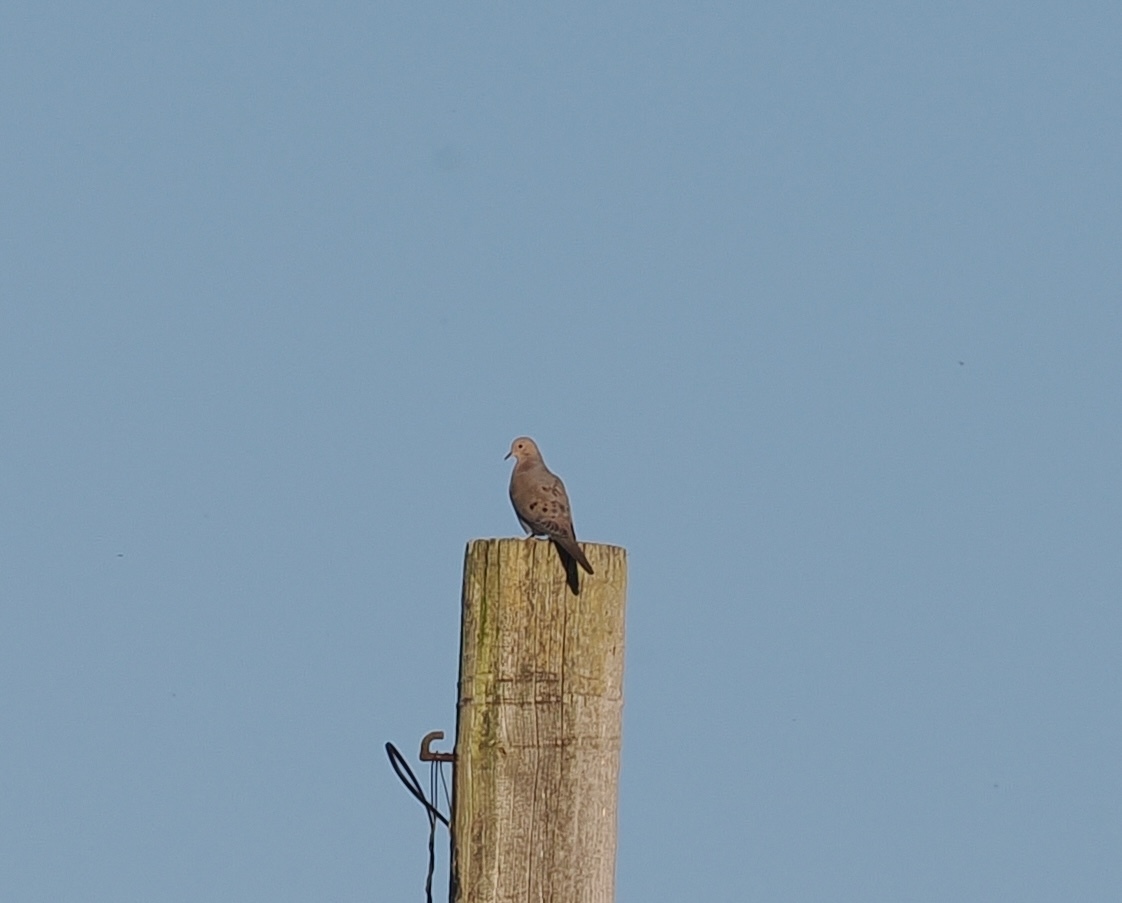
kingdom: Animalia
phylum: Chordata
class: Aves
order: Columbiformes
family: Columbidae
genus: Zenaida
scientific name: Zenaida macroura
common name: Mourning dove
